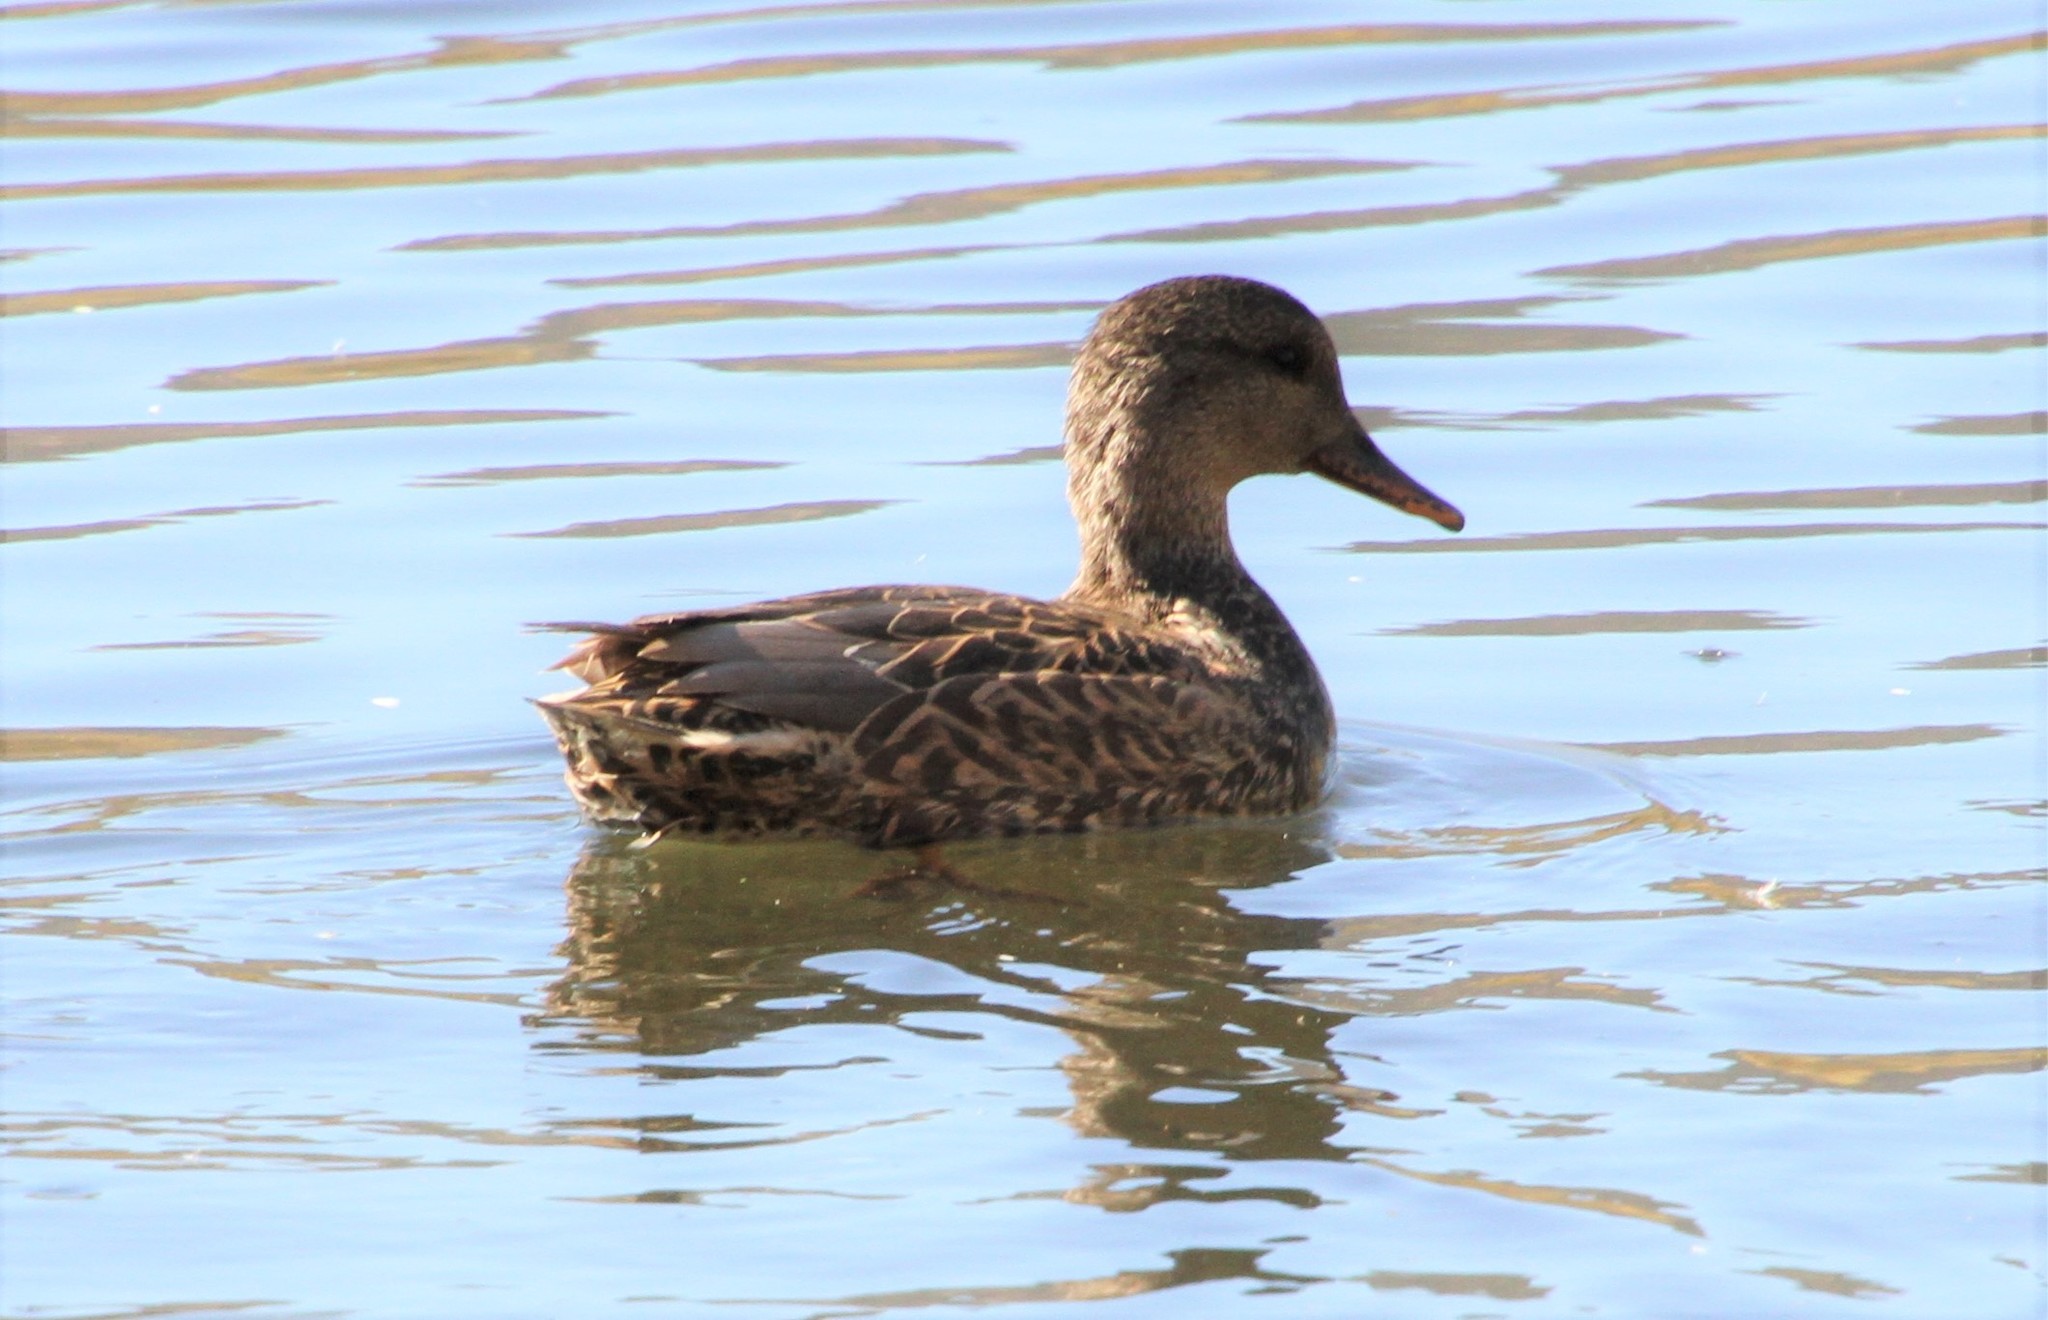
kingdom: Animalia
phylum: Chordata
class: Aves
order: Anseriformes
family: Anatidae
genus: Mareca
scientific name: Mareca strepera
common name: Gadwall
